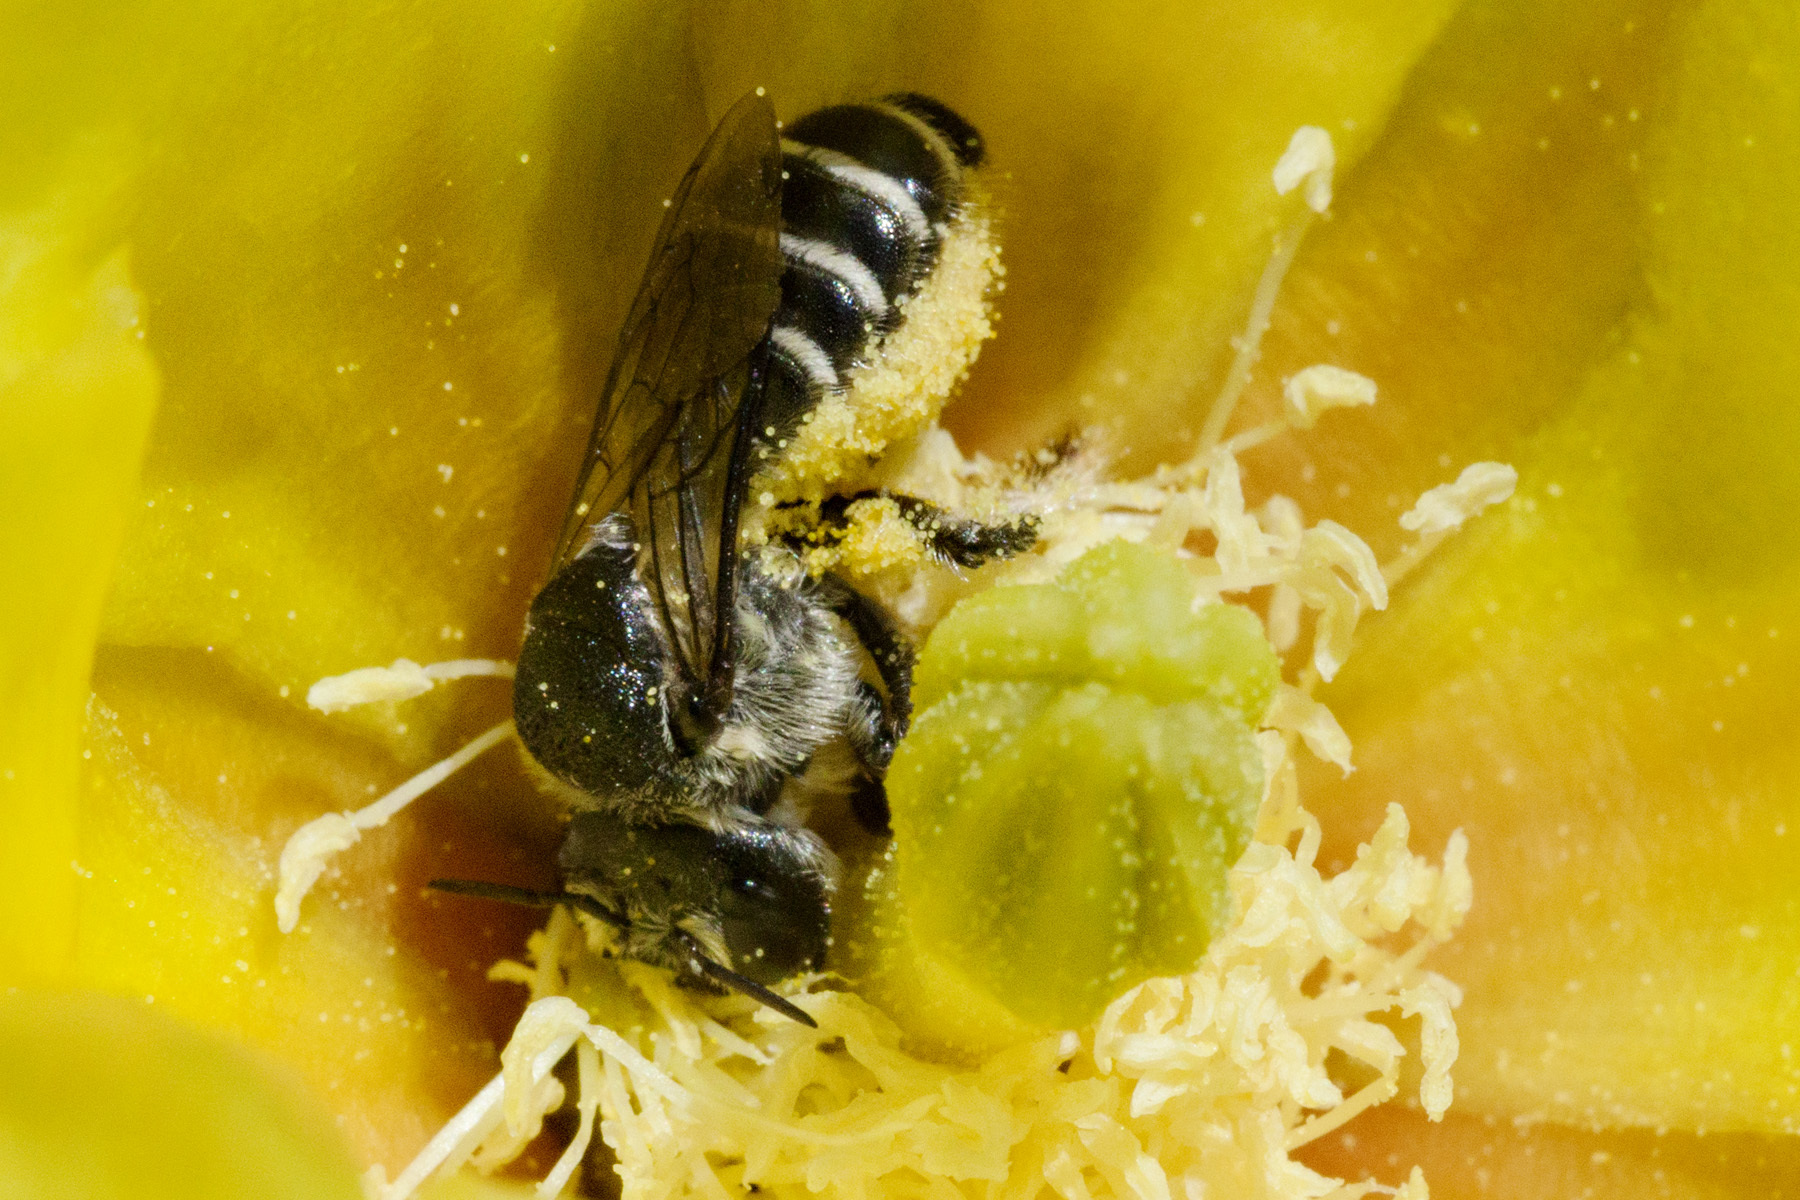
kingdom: Animalia
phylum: Arthropoda
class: Insecta
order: Hymenoptera
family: Megachilidae
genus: Lithurgopsis
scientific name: Lithurgopsis
